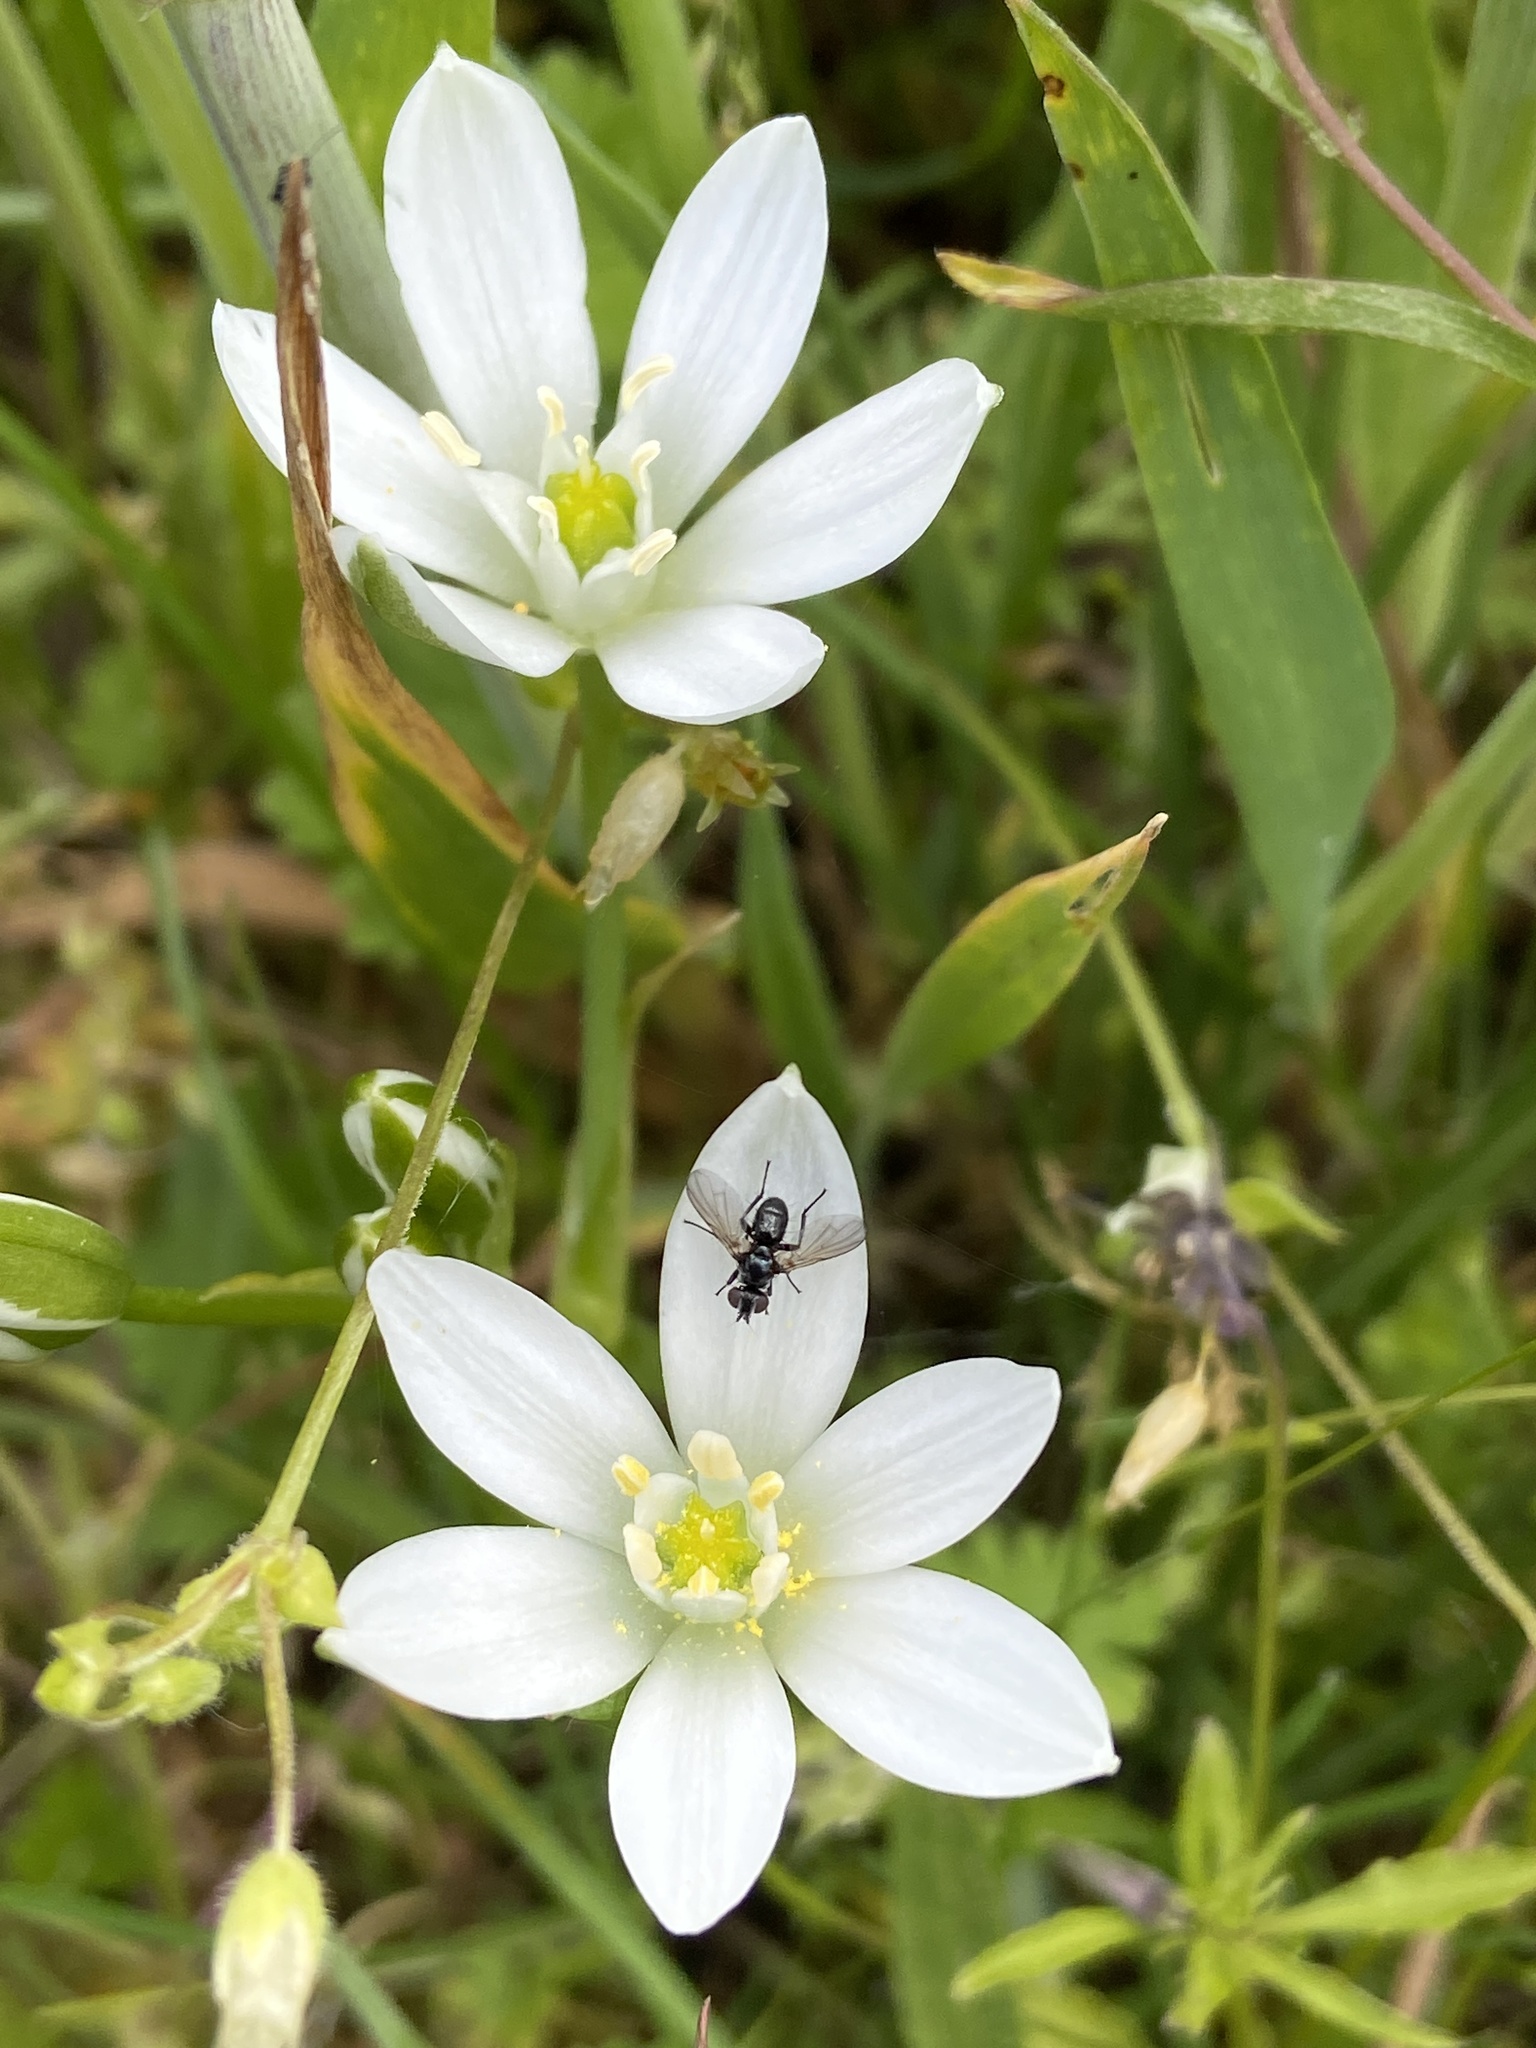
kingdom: Plantae
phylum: Tracheophyta
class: Liliopsida
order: Asparagales
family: Asparagaceae
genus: Ornithogalum
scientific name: Ornithogalum umbellatum
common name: Garden star-of-bethlehem
